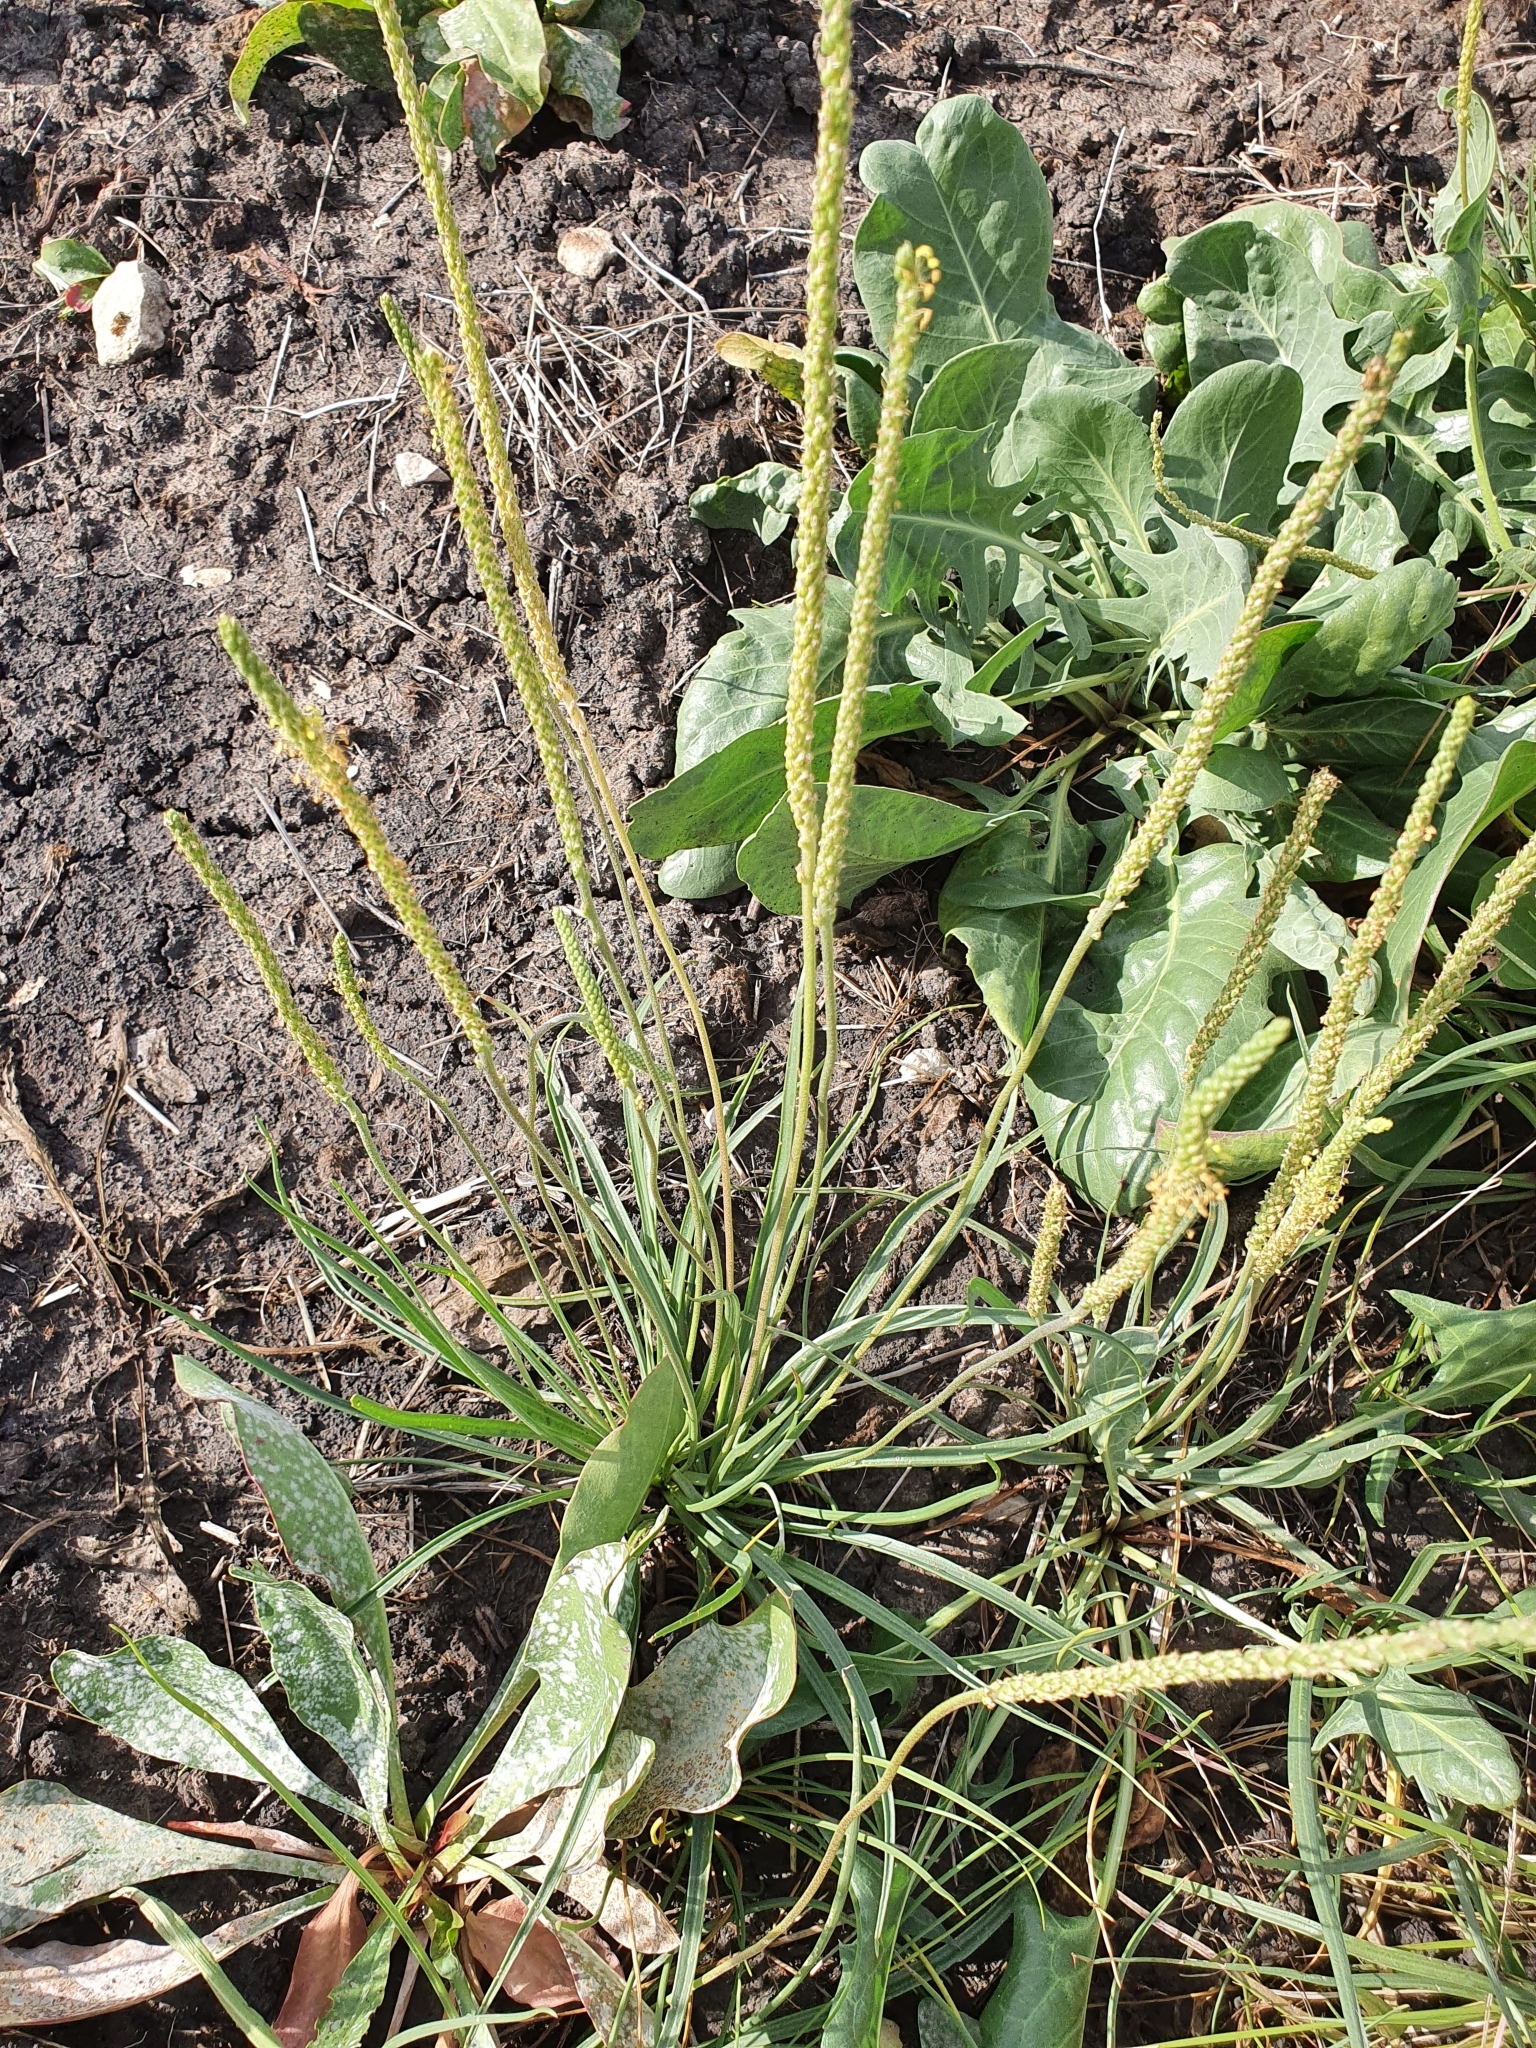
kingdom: Plantae
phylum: Tracheophyta
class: Magnoliopsida
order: Lamiales
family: Plantaginaceae
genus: Plantago
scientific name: Plantago salsa
